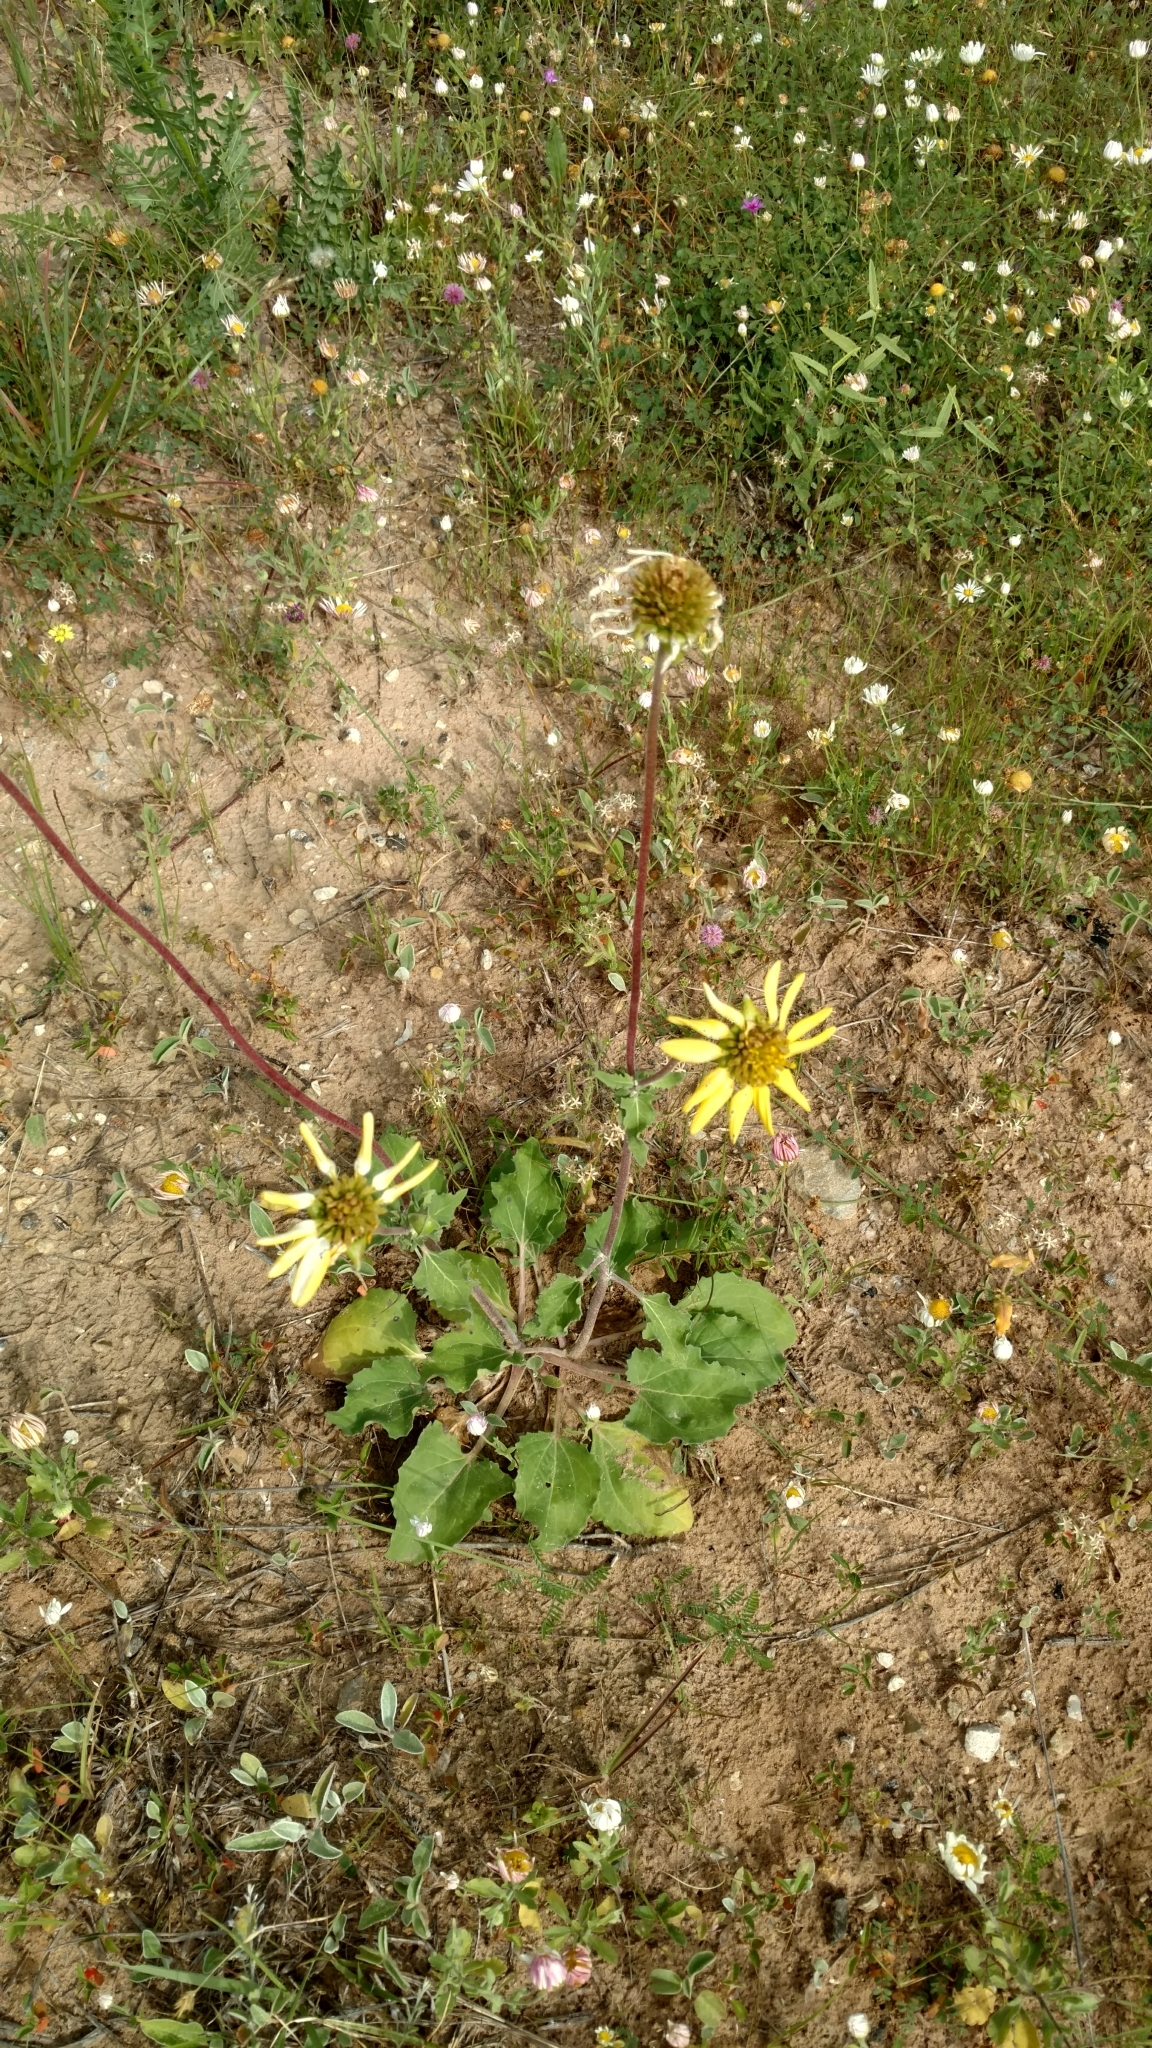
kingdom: Plantae
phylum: Tracheophyta
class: Magnoliopsida
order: Asterales
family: Asteraceae
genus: Tetragonotheca
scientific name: Tetragonotheca repanda
